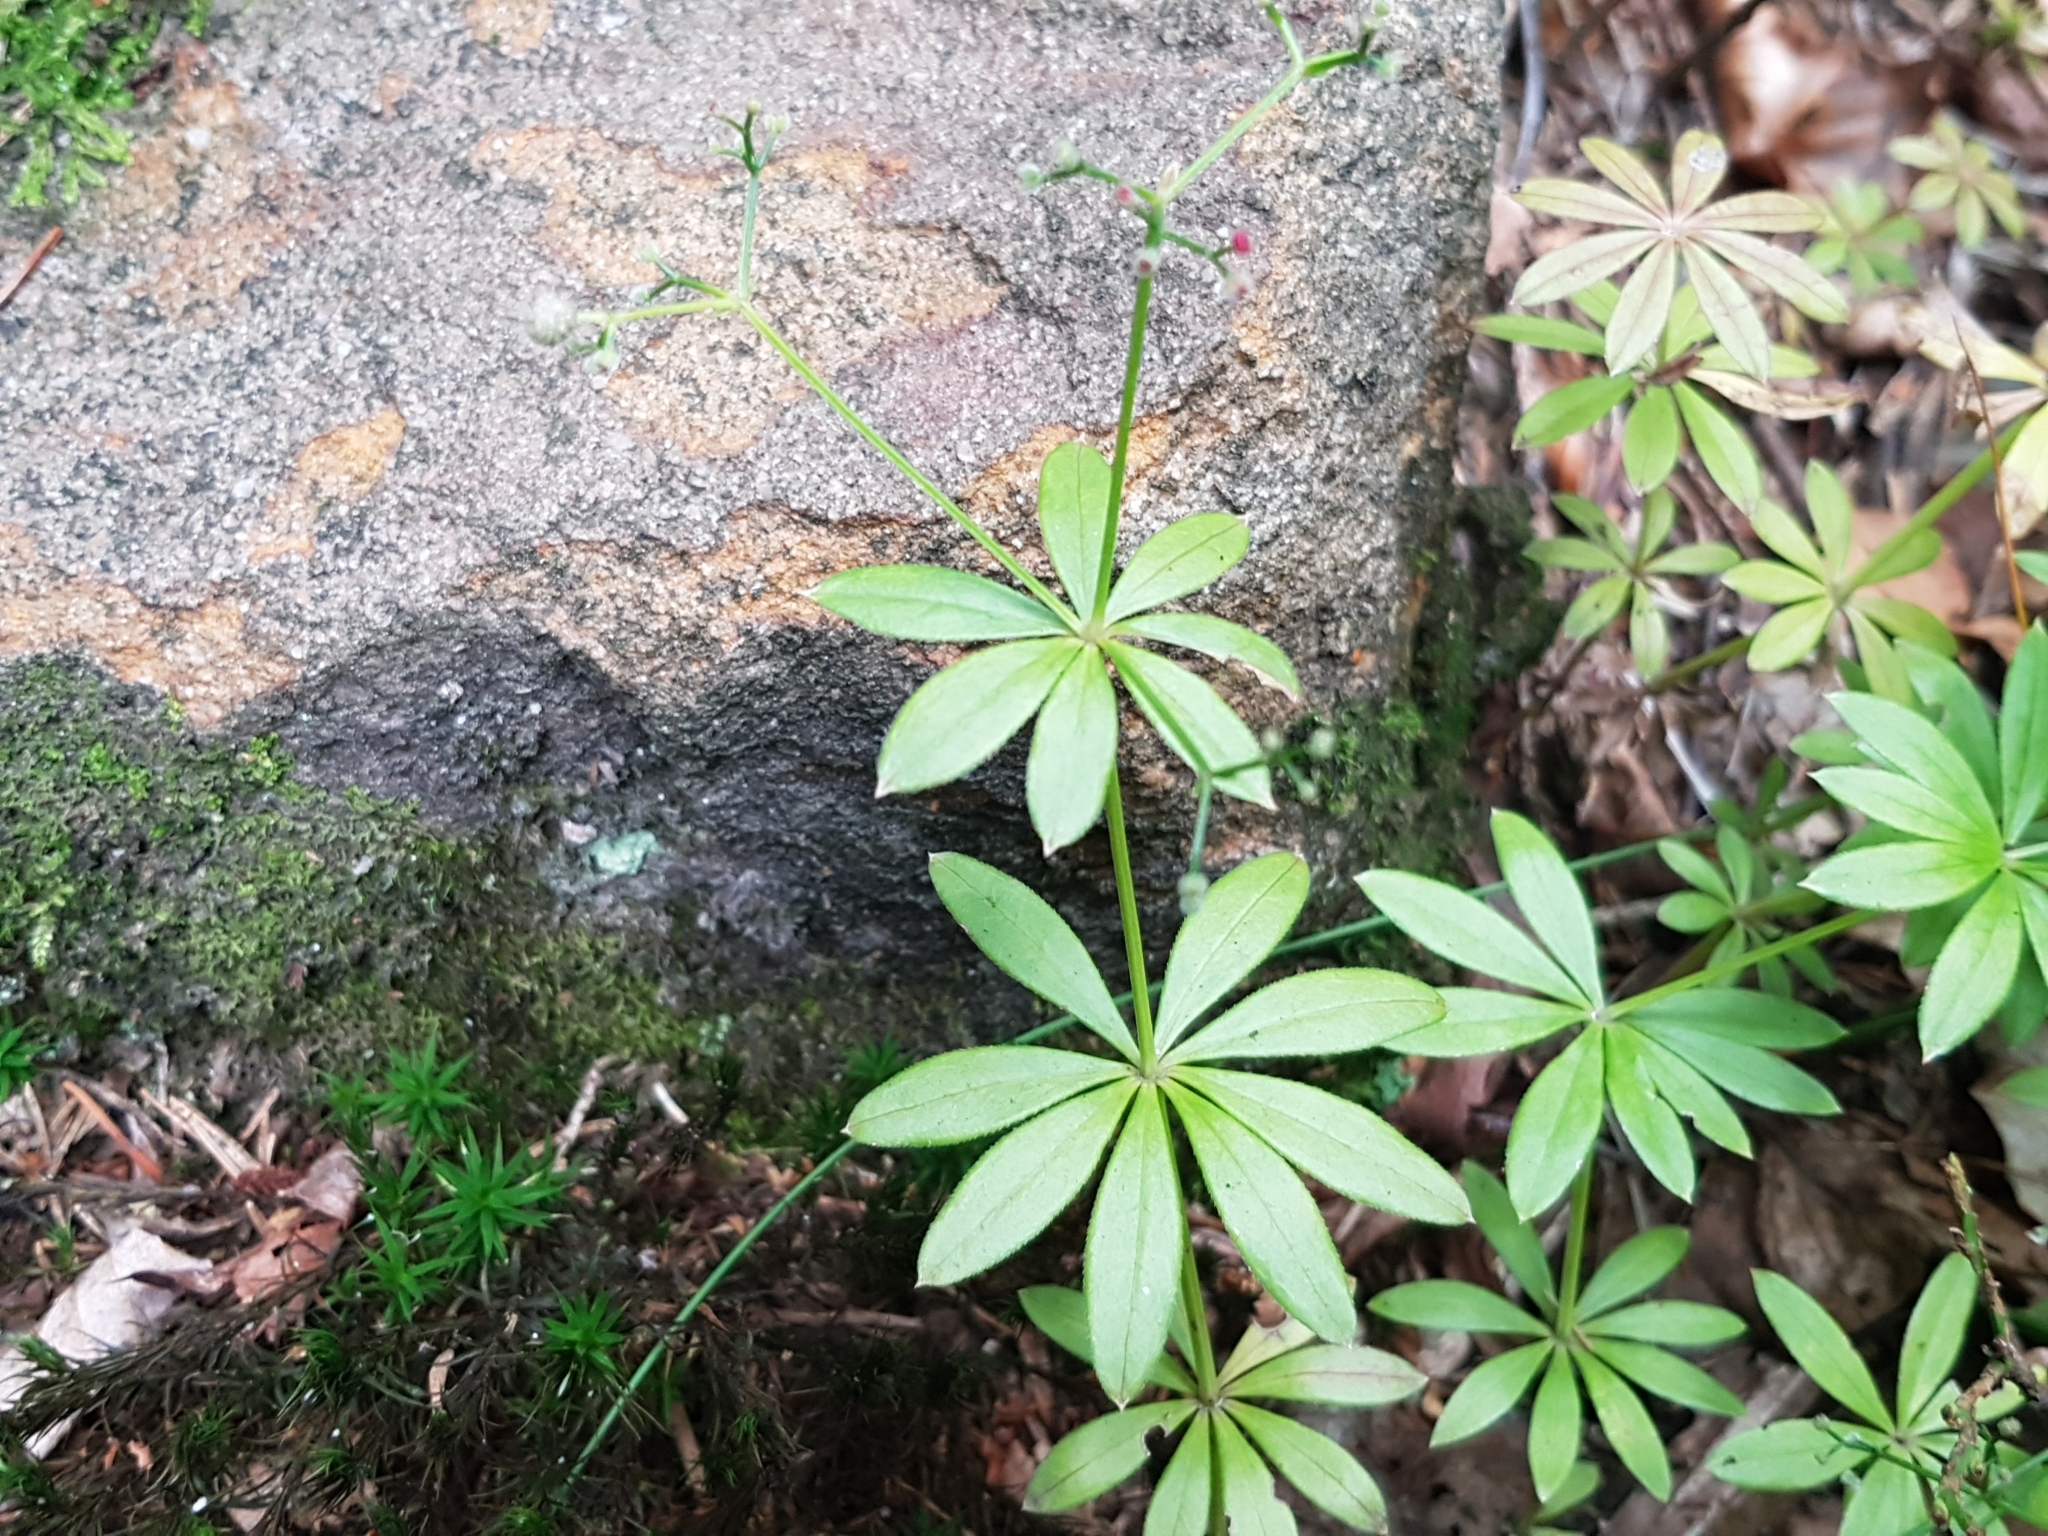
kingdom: Plantae
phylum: Tracheophyta
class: Magnoliopsida
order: Gentianales
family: Rubiaceae
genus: Galium
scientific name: Galium odoratum
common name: Sweet woodruff
